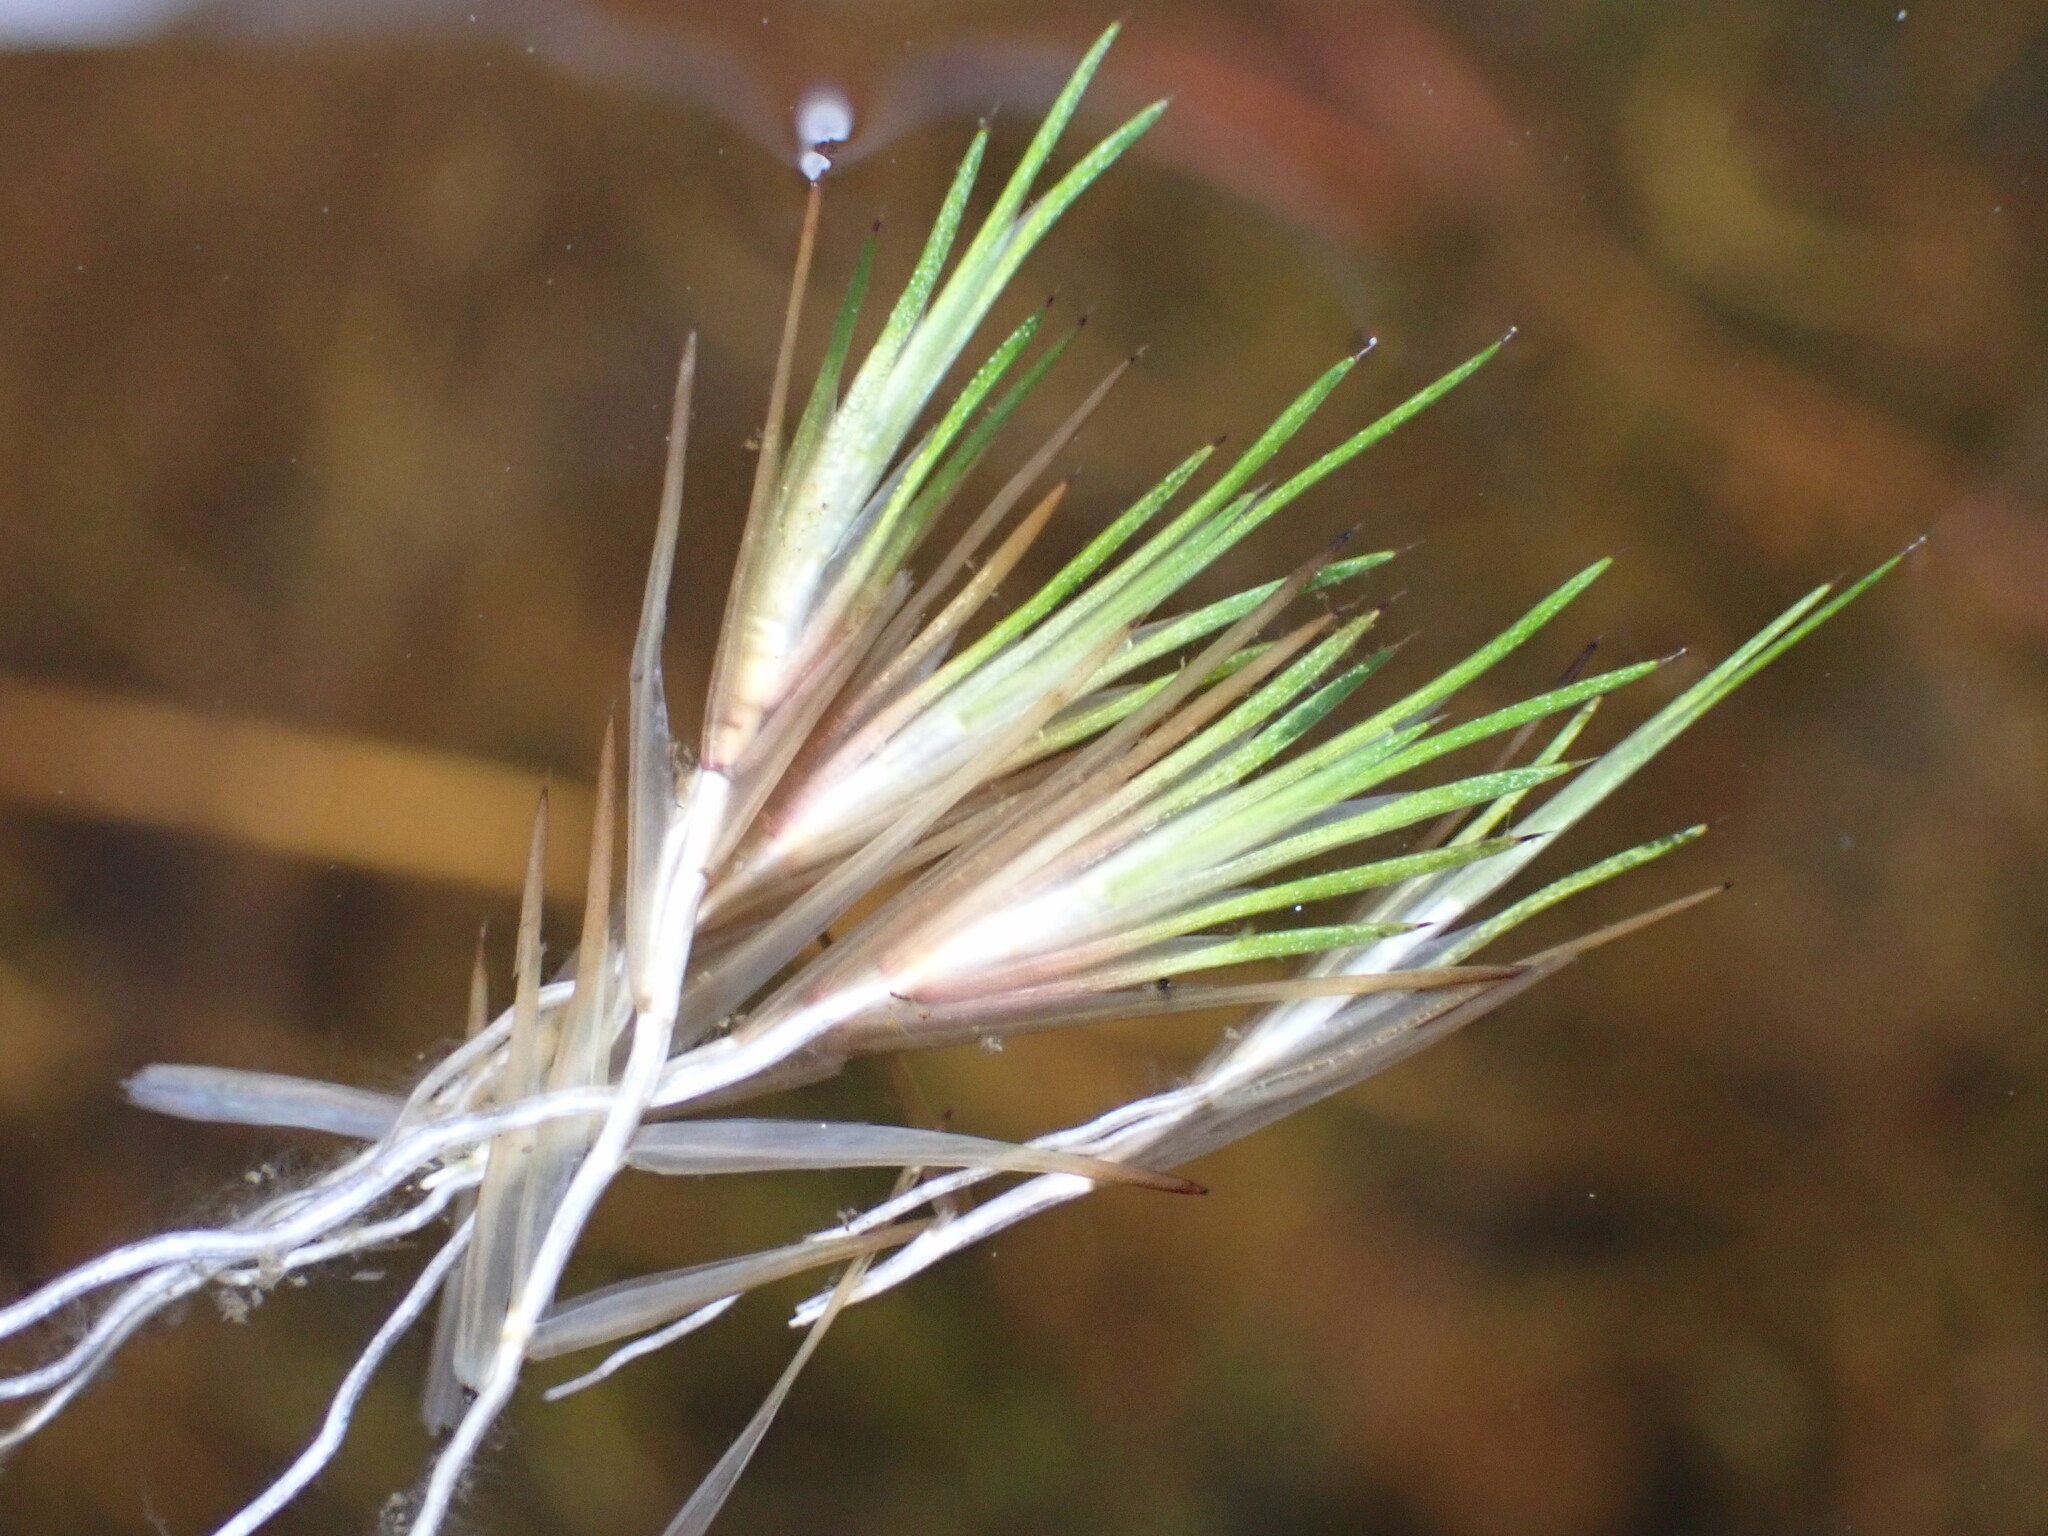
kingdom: Plantae
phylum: Tracheophyta
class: Liliopsida
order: Poales
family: Restionaceae
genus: Gaimardia
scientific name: Gaimardia setacea
